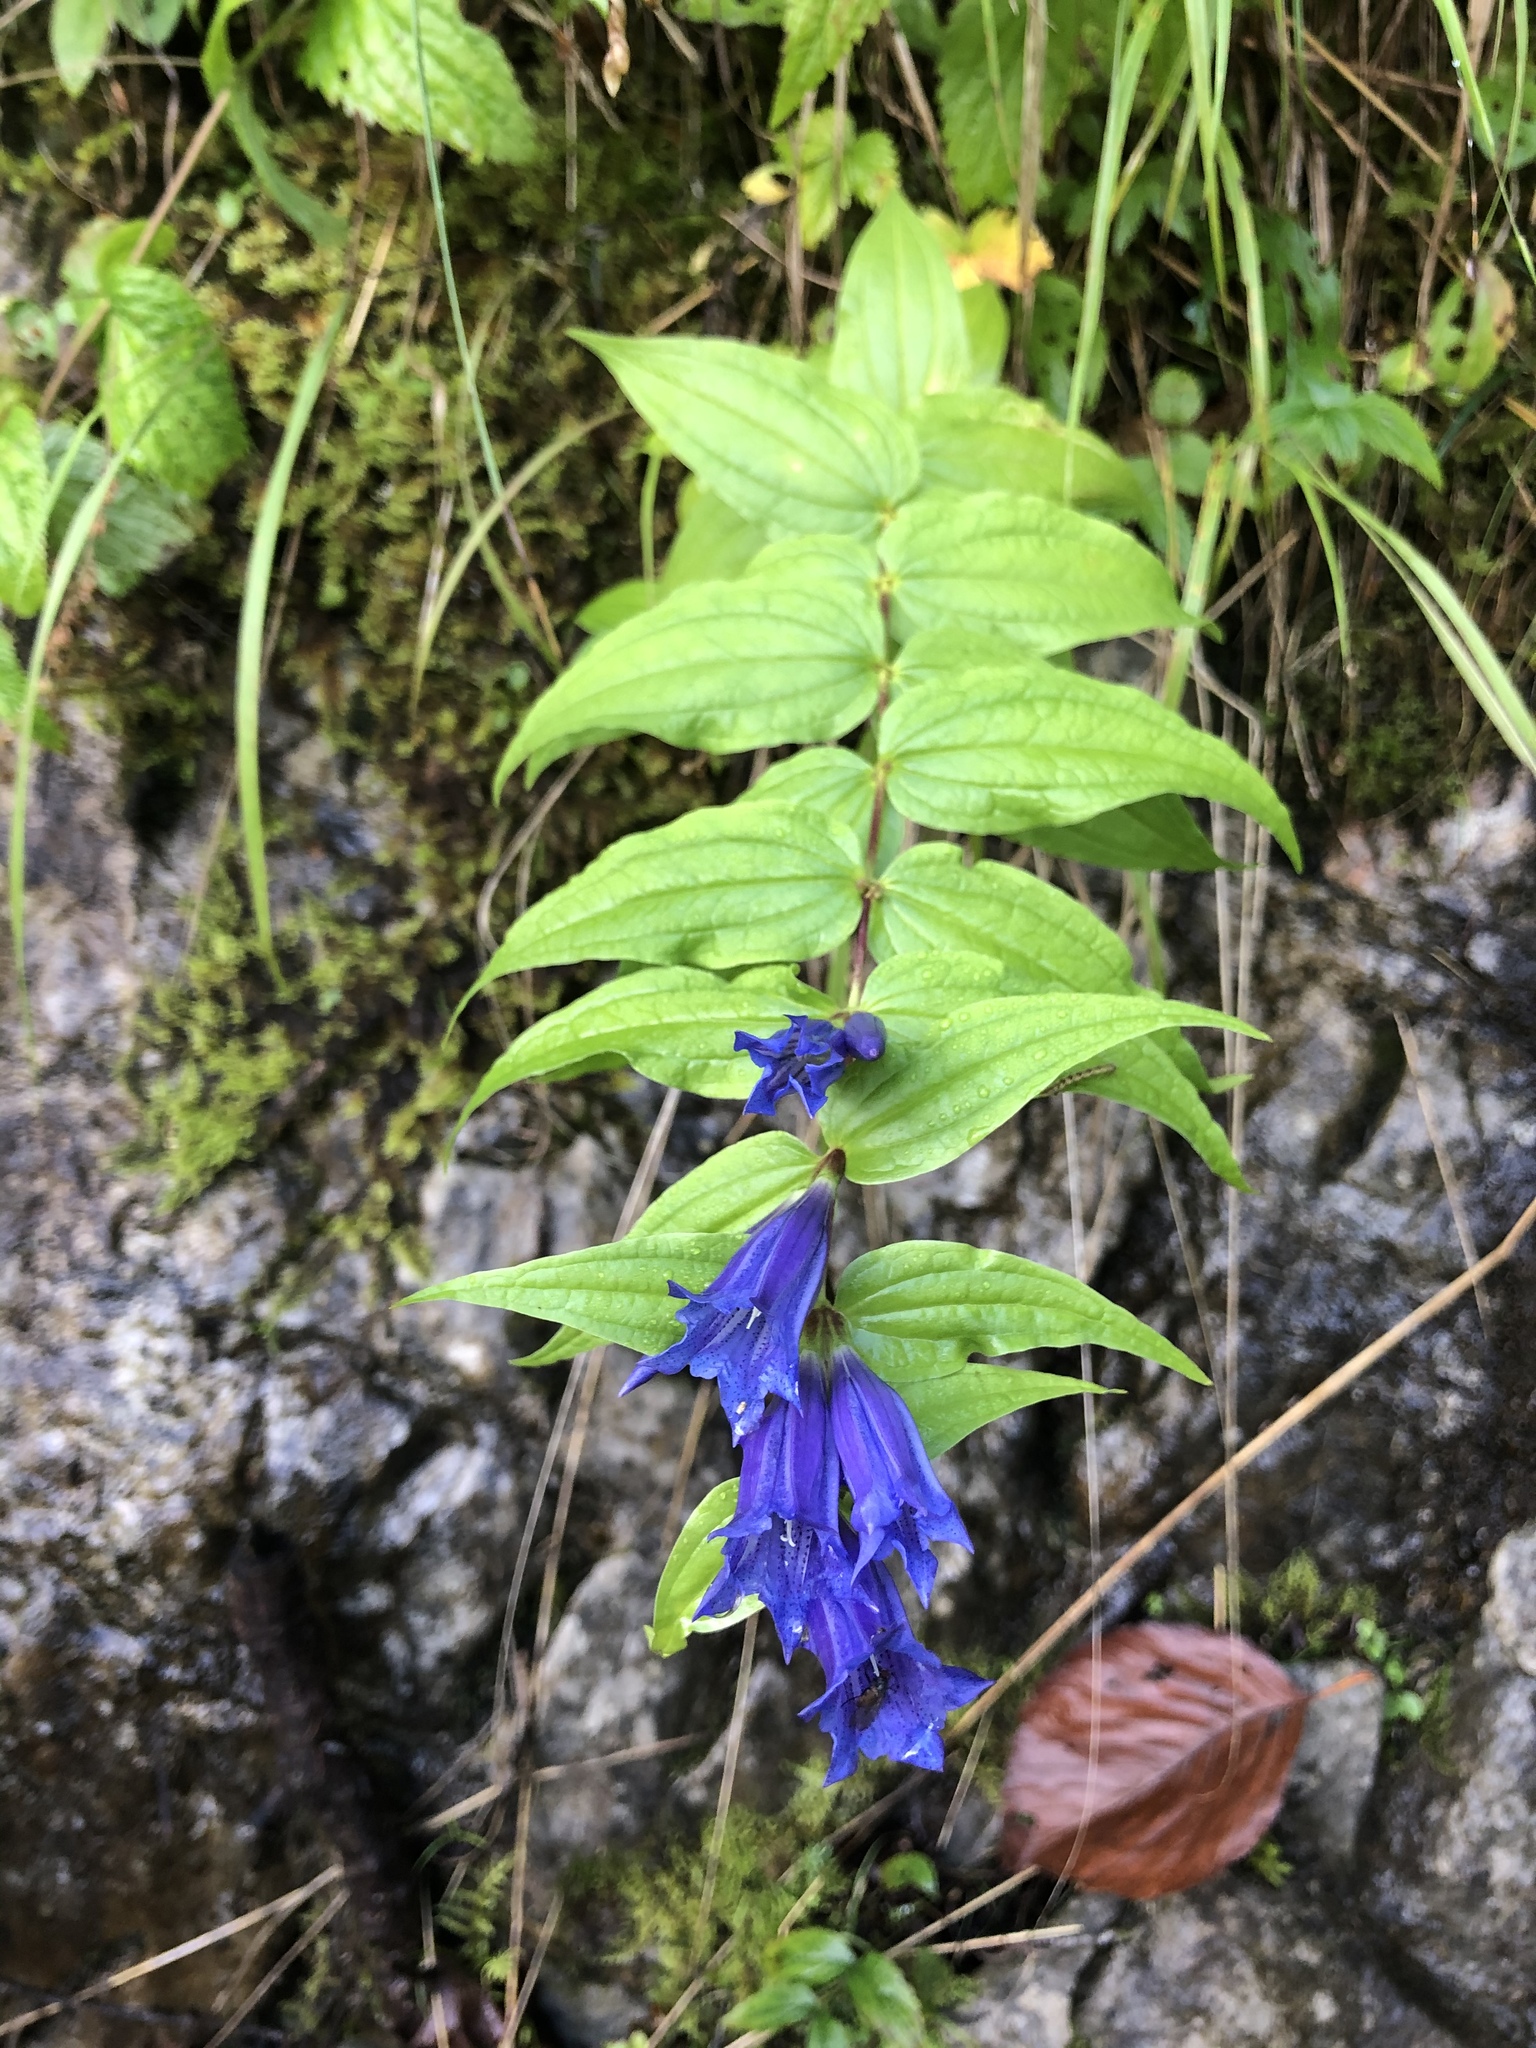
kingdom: Plantae
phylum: Tracheophyta
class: Magnoliopsida
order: Gentianales
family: Gentianaceae
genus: Gentiana
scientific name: Gentiana asclepiadea
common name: Willow gentian
